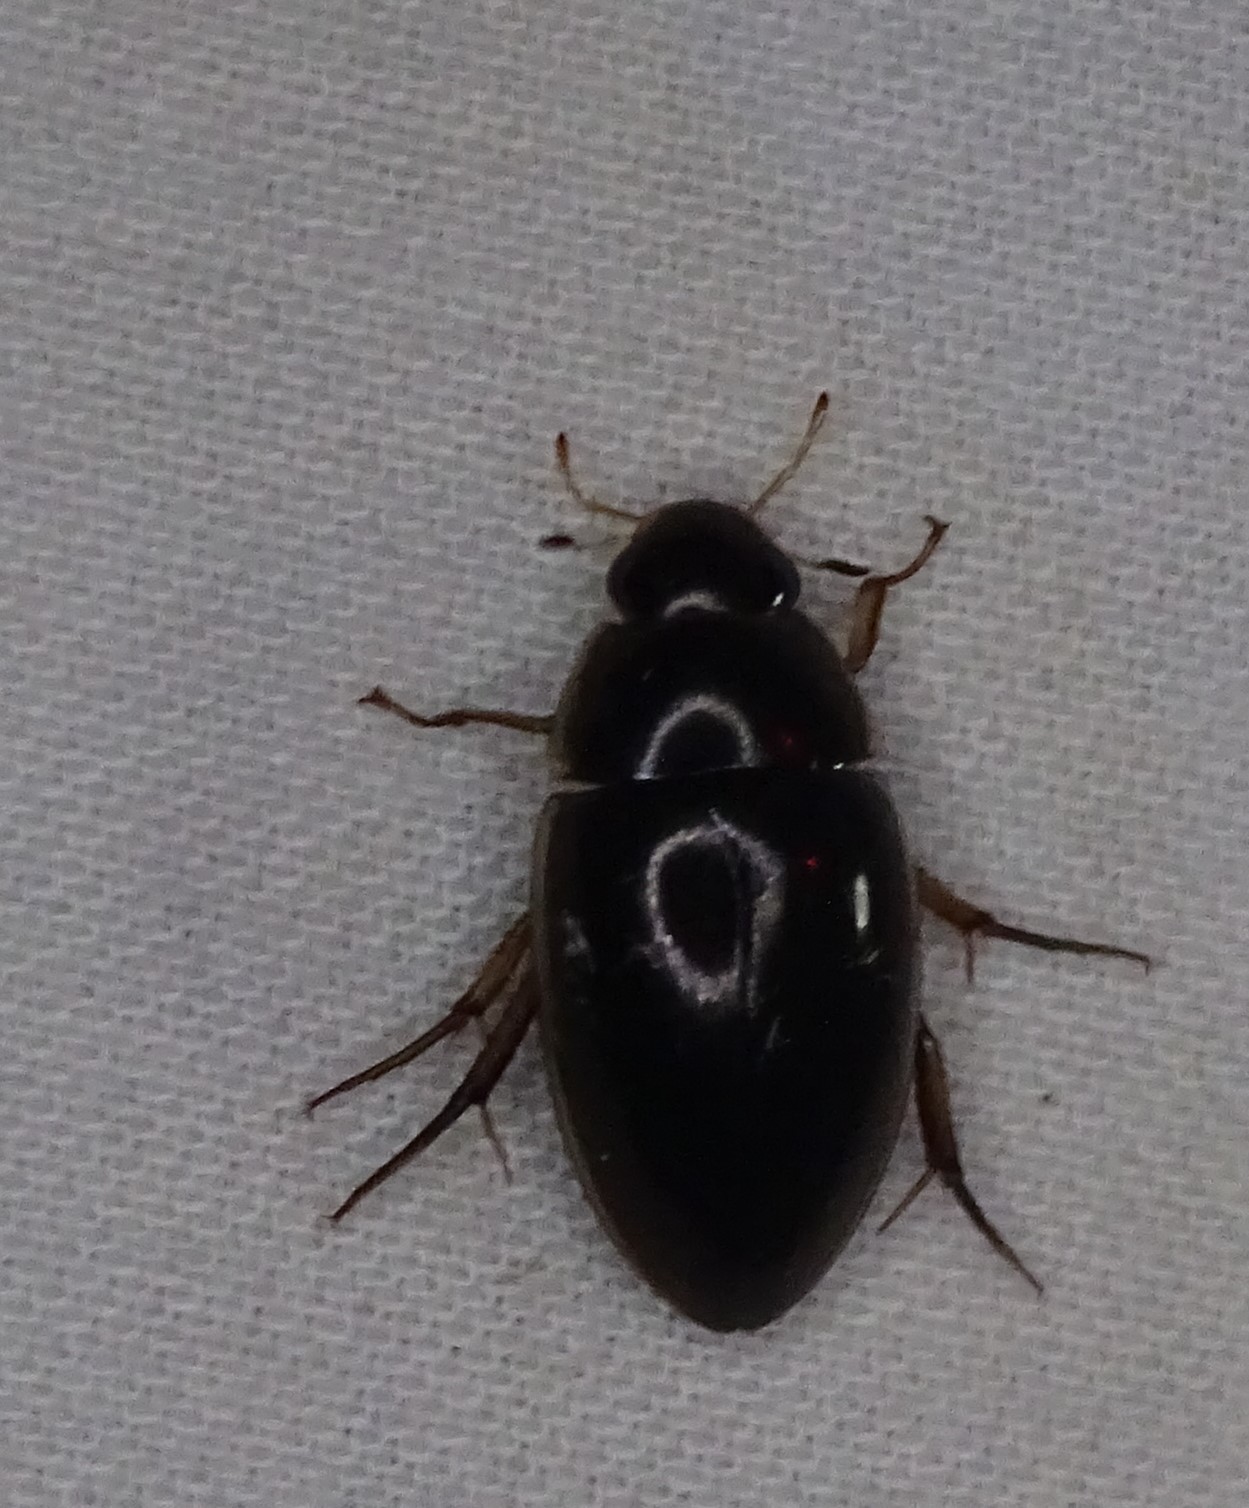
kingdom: Animalia
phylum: Arthropoda
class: Insecta
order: Coleoptera
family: Hydrophilidae
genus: Tropisternus
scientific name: Tropisternus lateralis
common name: Lateral-banded water scavenger beetle
